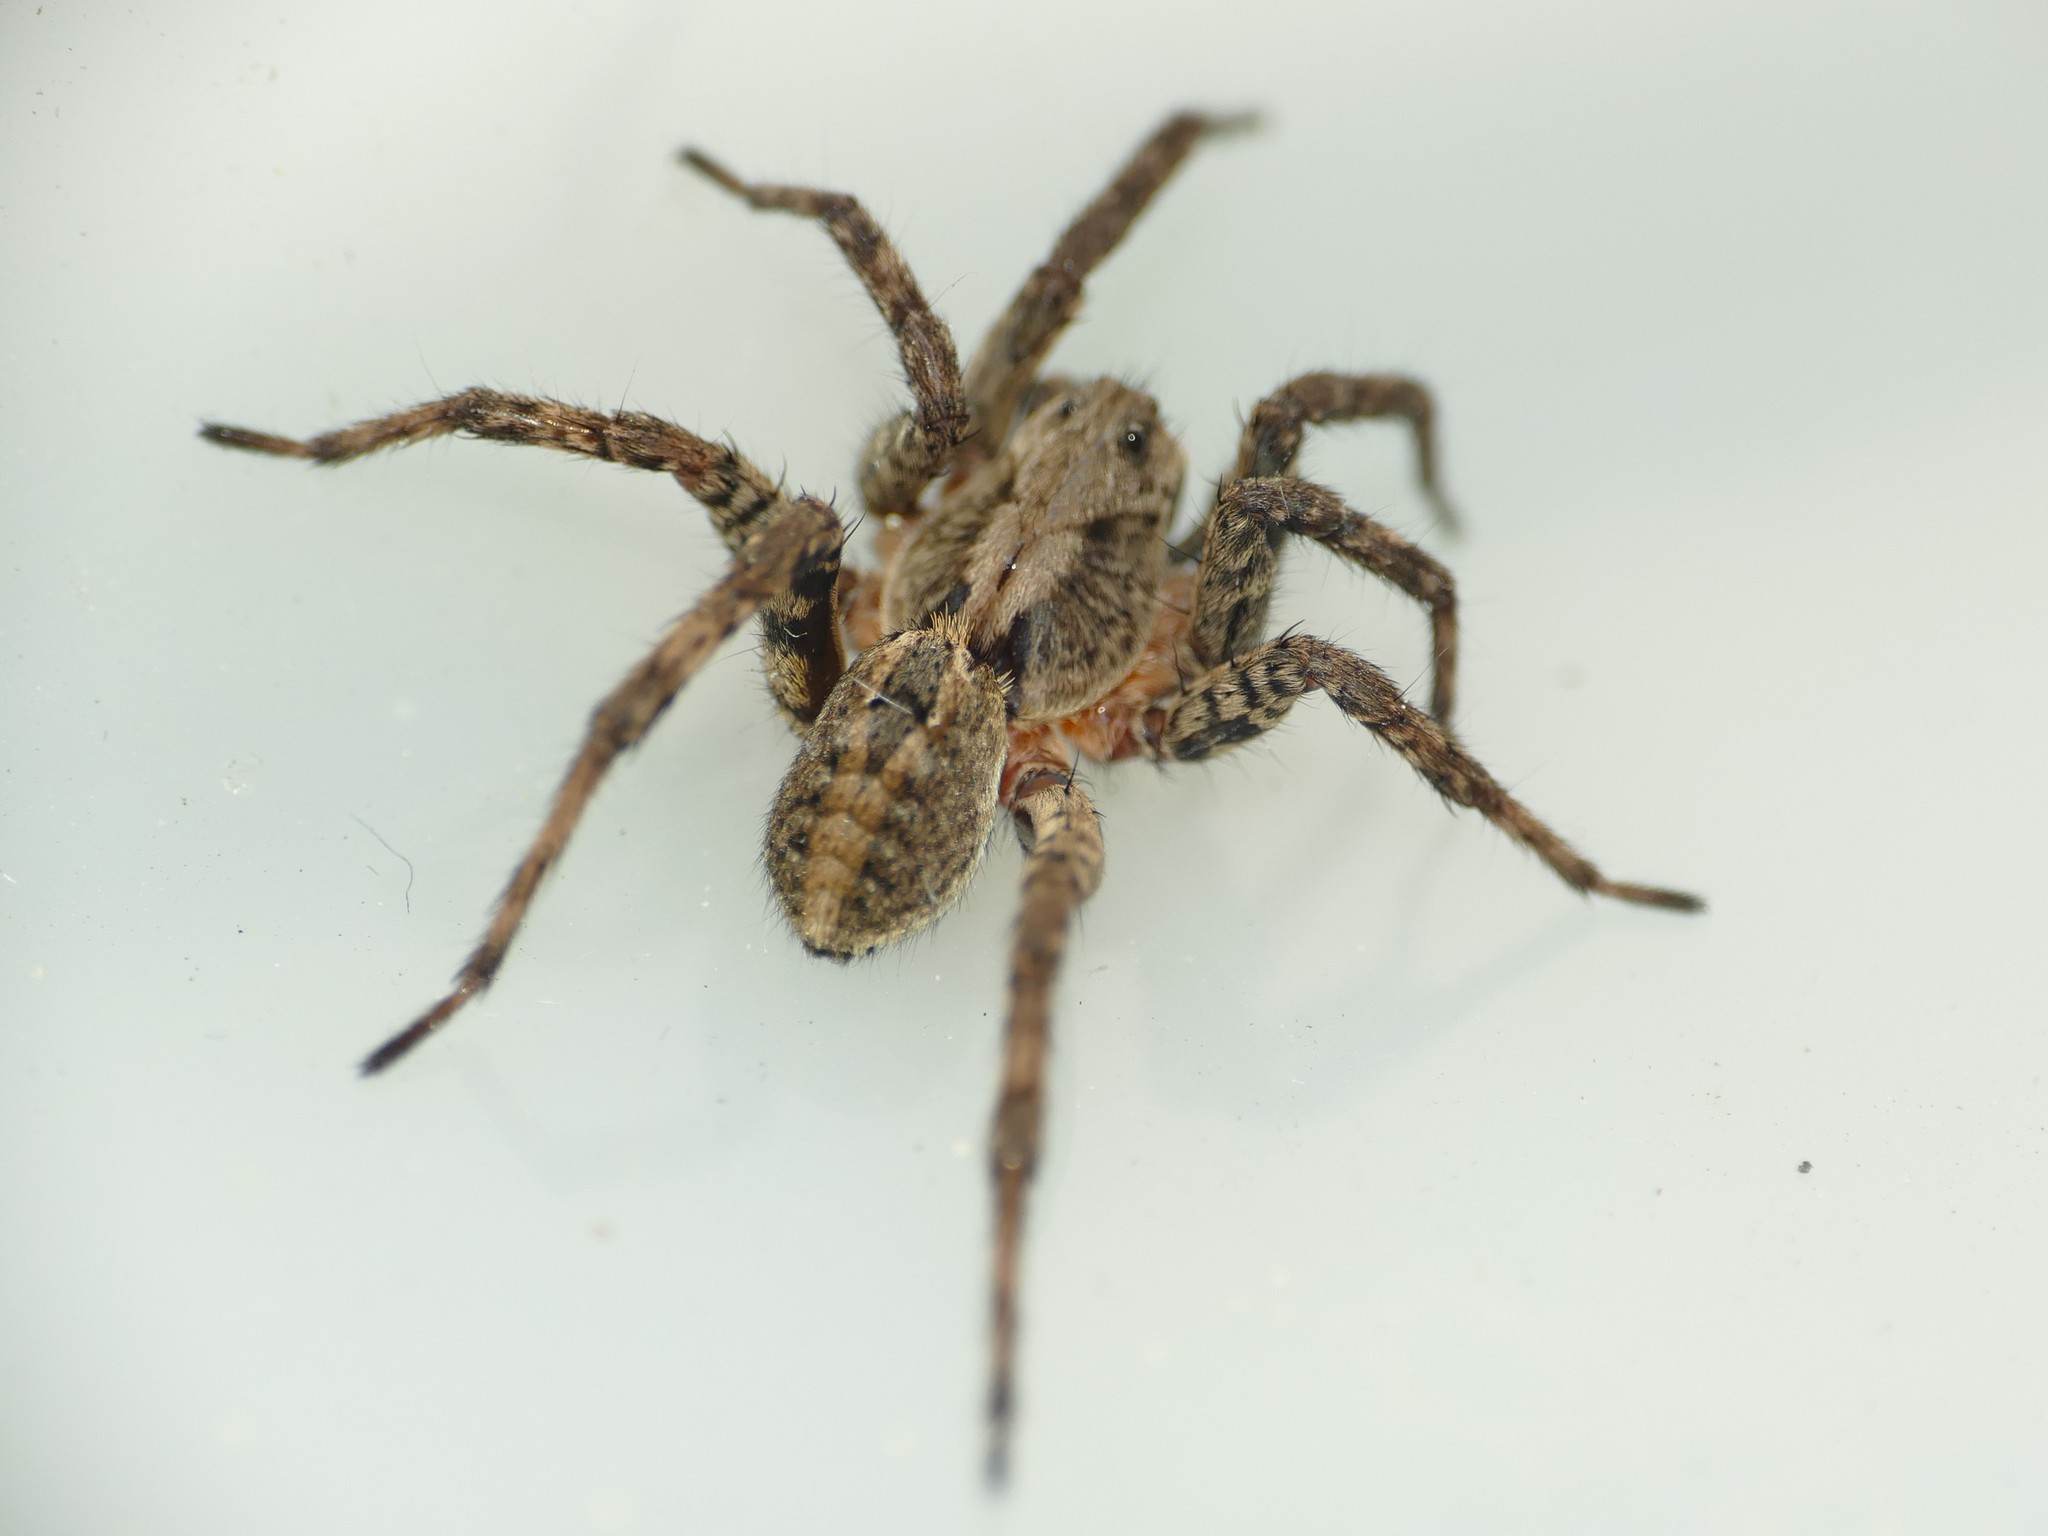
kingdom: Animalia
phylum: Arthropoda
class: Arachnida
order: Araneae
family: Lycosidae
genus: Alopecosa
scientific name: Alopecosa albofasciata
